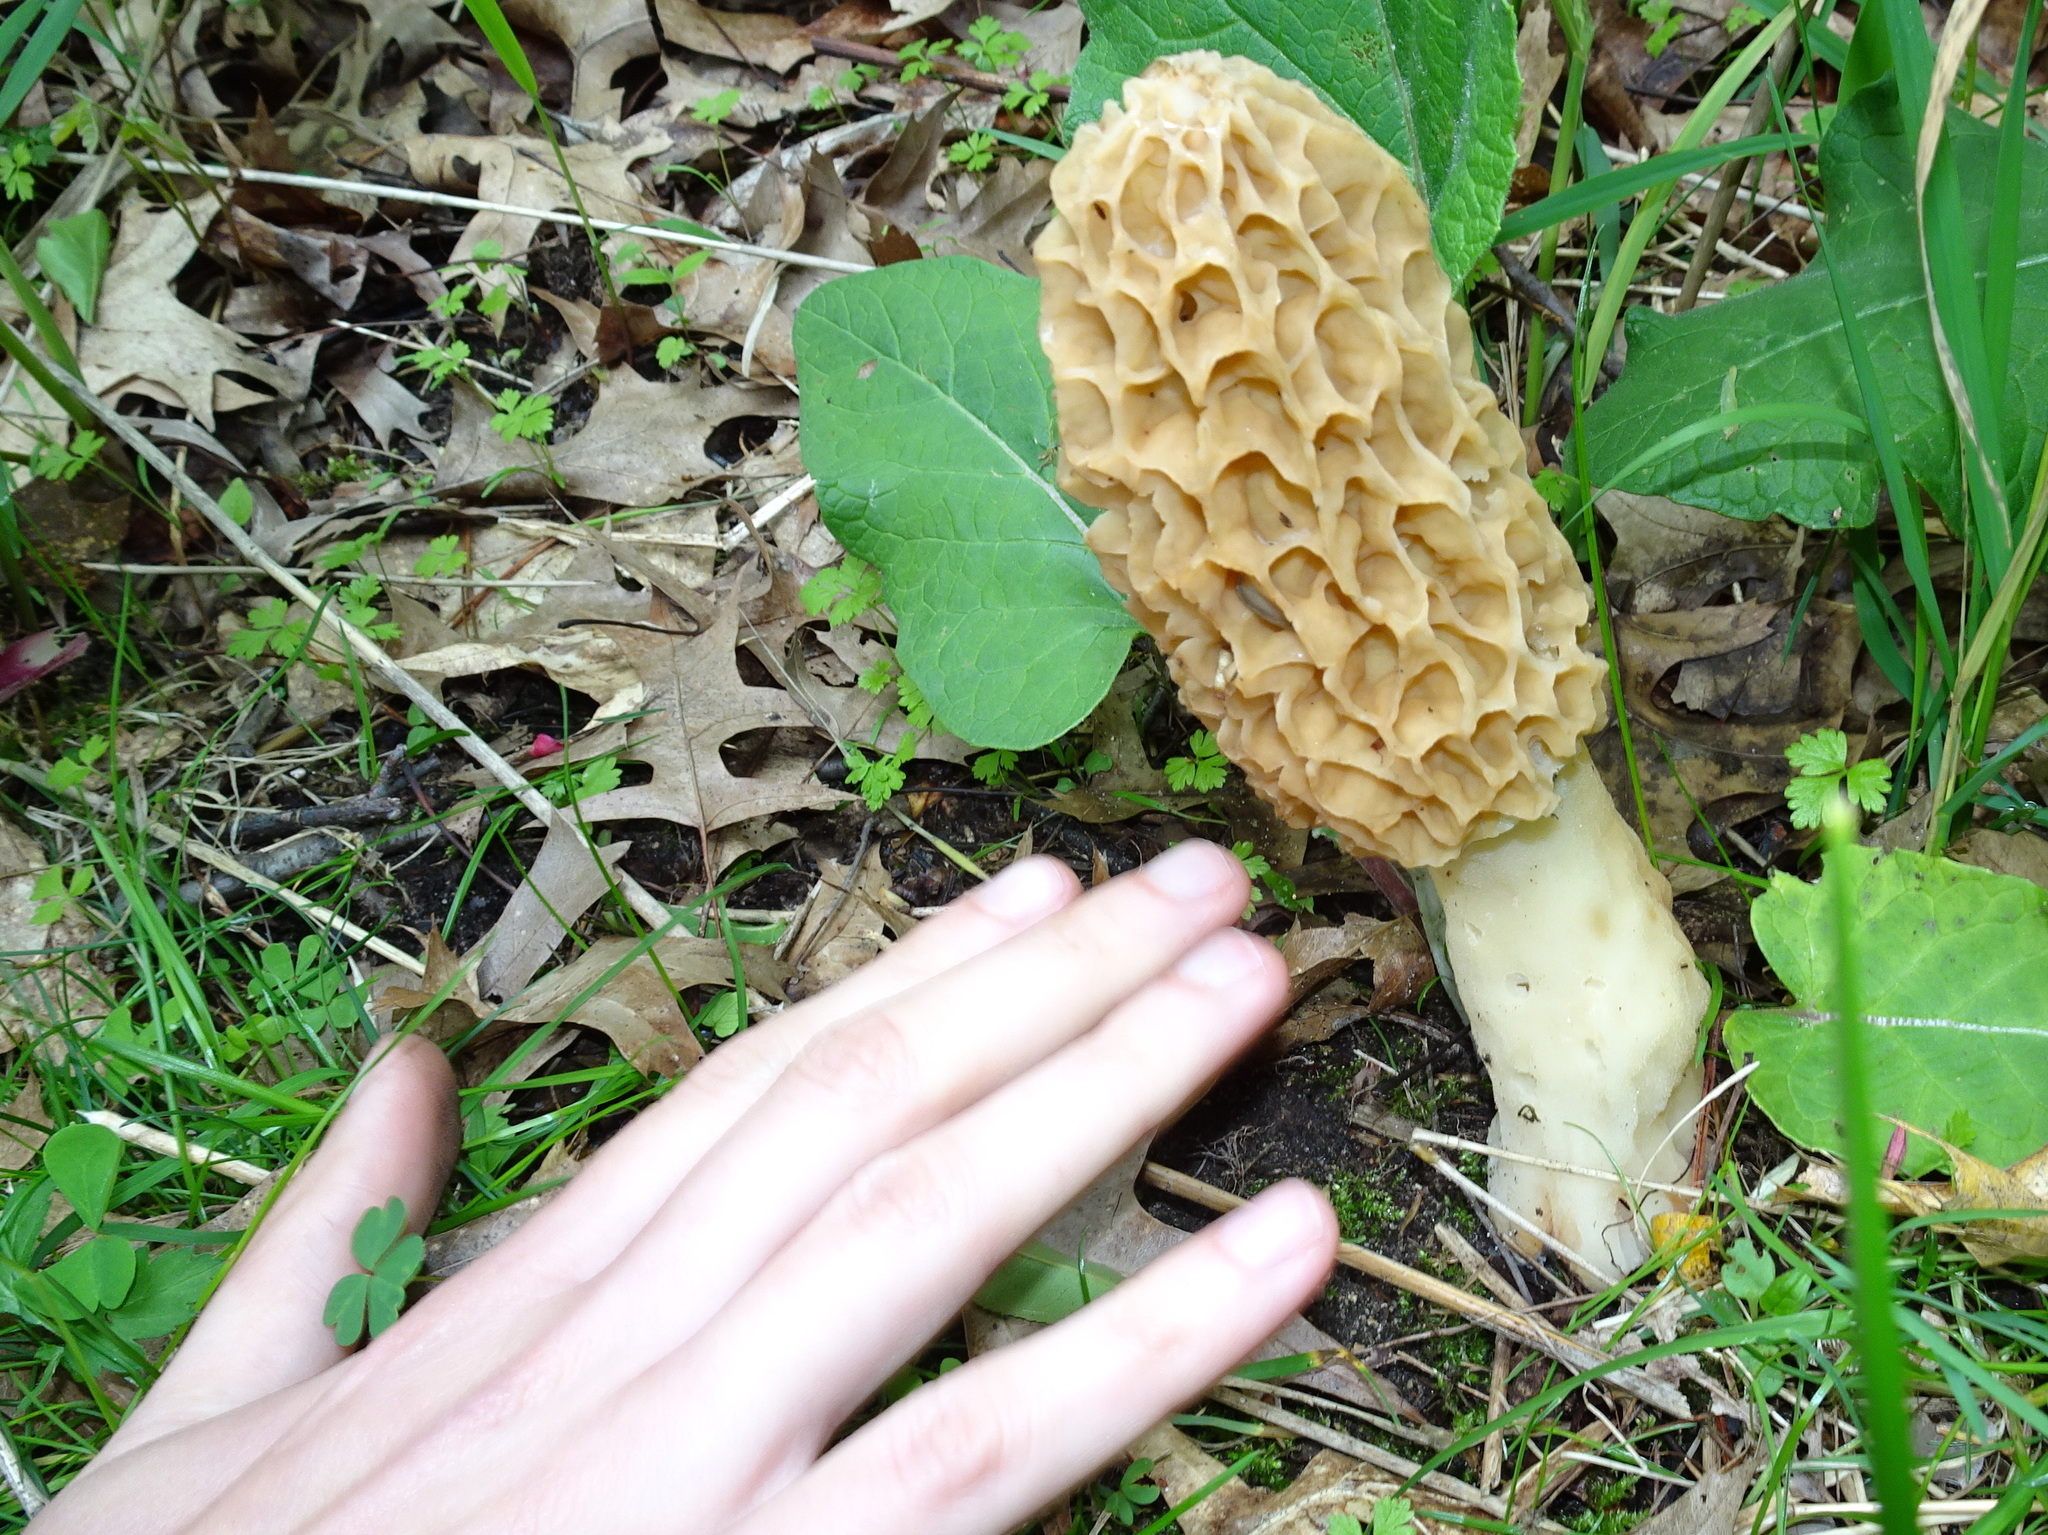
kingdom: Fungi
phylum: Ascomycota
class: Pezizomycetes
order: Pezizales
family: Morchellaceae
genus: Morchella
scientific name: Morchella americana
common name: White morel
